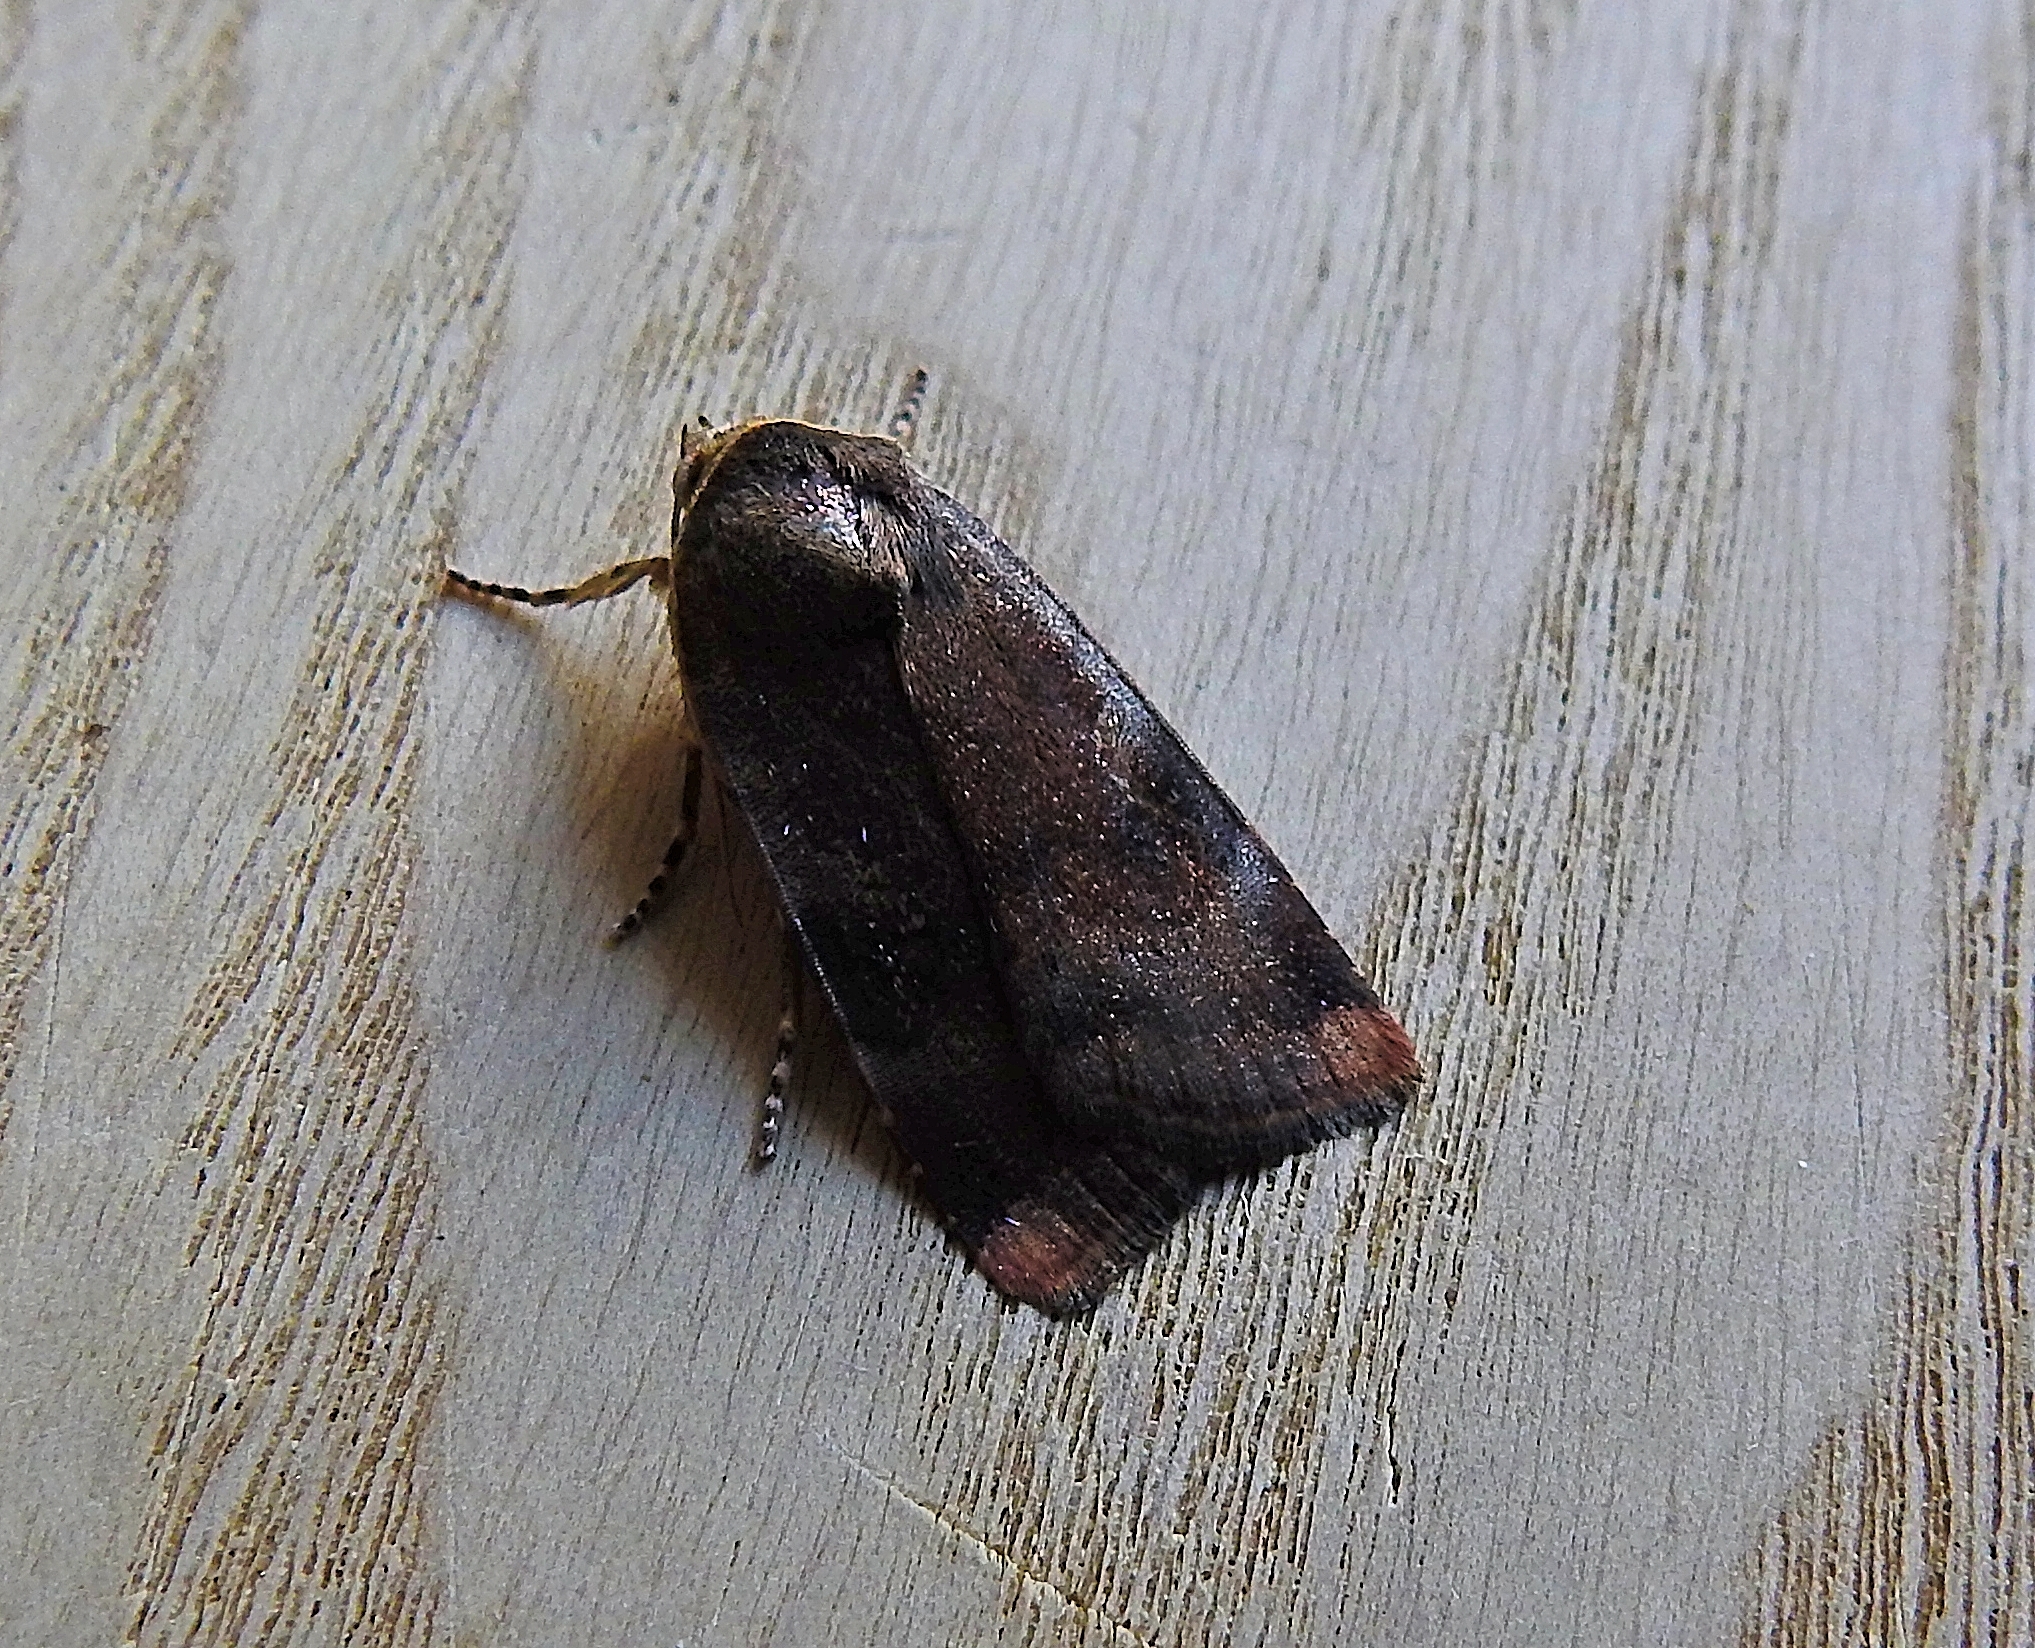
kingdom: Animalia
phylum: Arthropoda
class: Insecta
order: Lepidoptera
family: Noctuidae
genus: Noctua
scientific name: Noctua janthe
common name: Lesser broad-bordered yellow underwing
